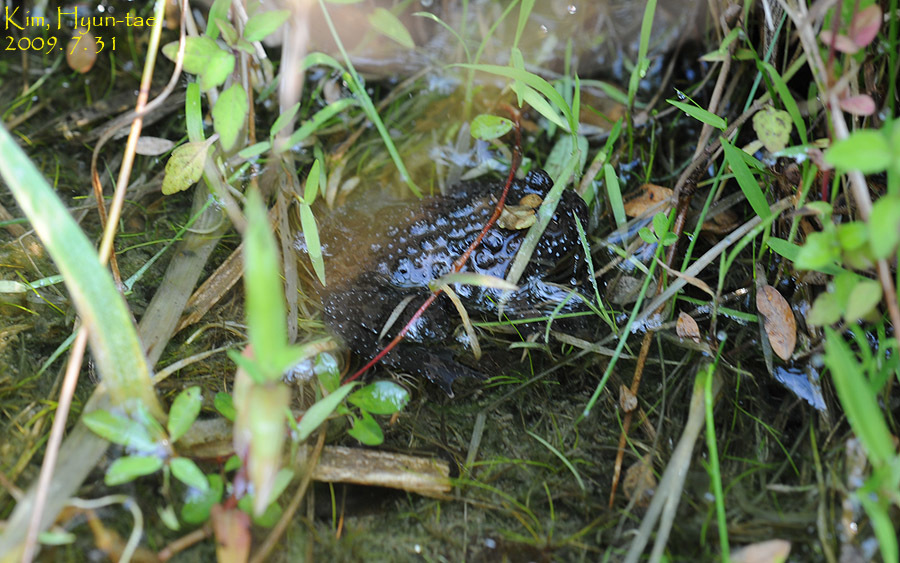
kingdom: Animalia
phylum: Chordata
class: Amphibia
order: Anura
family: Bombinatoridae
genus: Bombina
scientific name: Bombina orientalis
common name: Oriental firebelly toad
